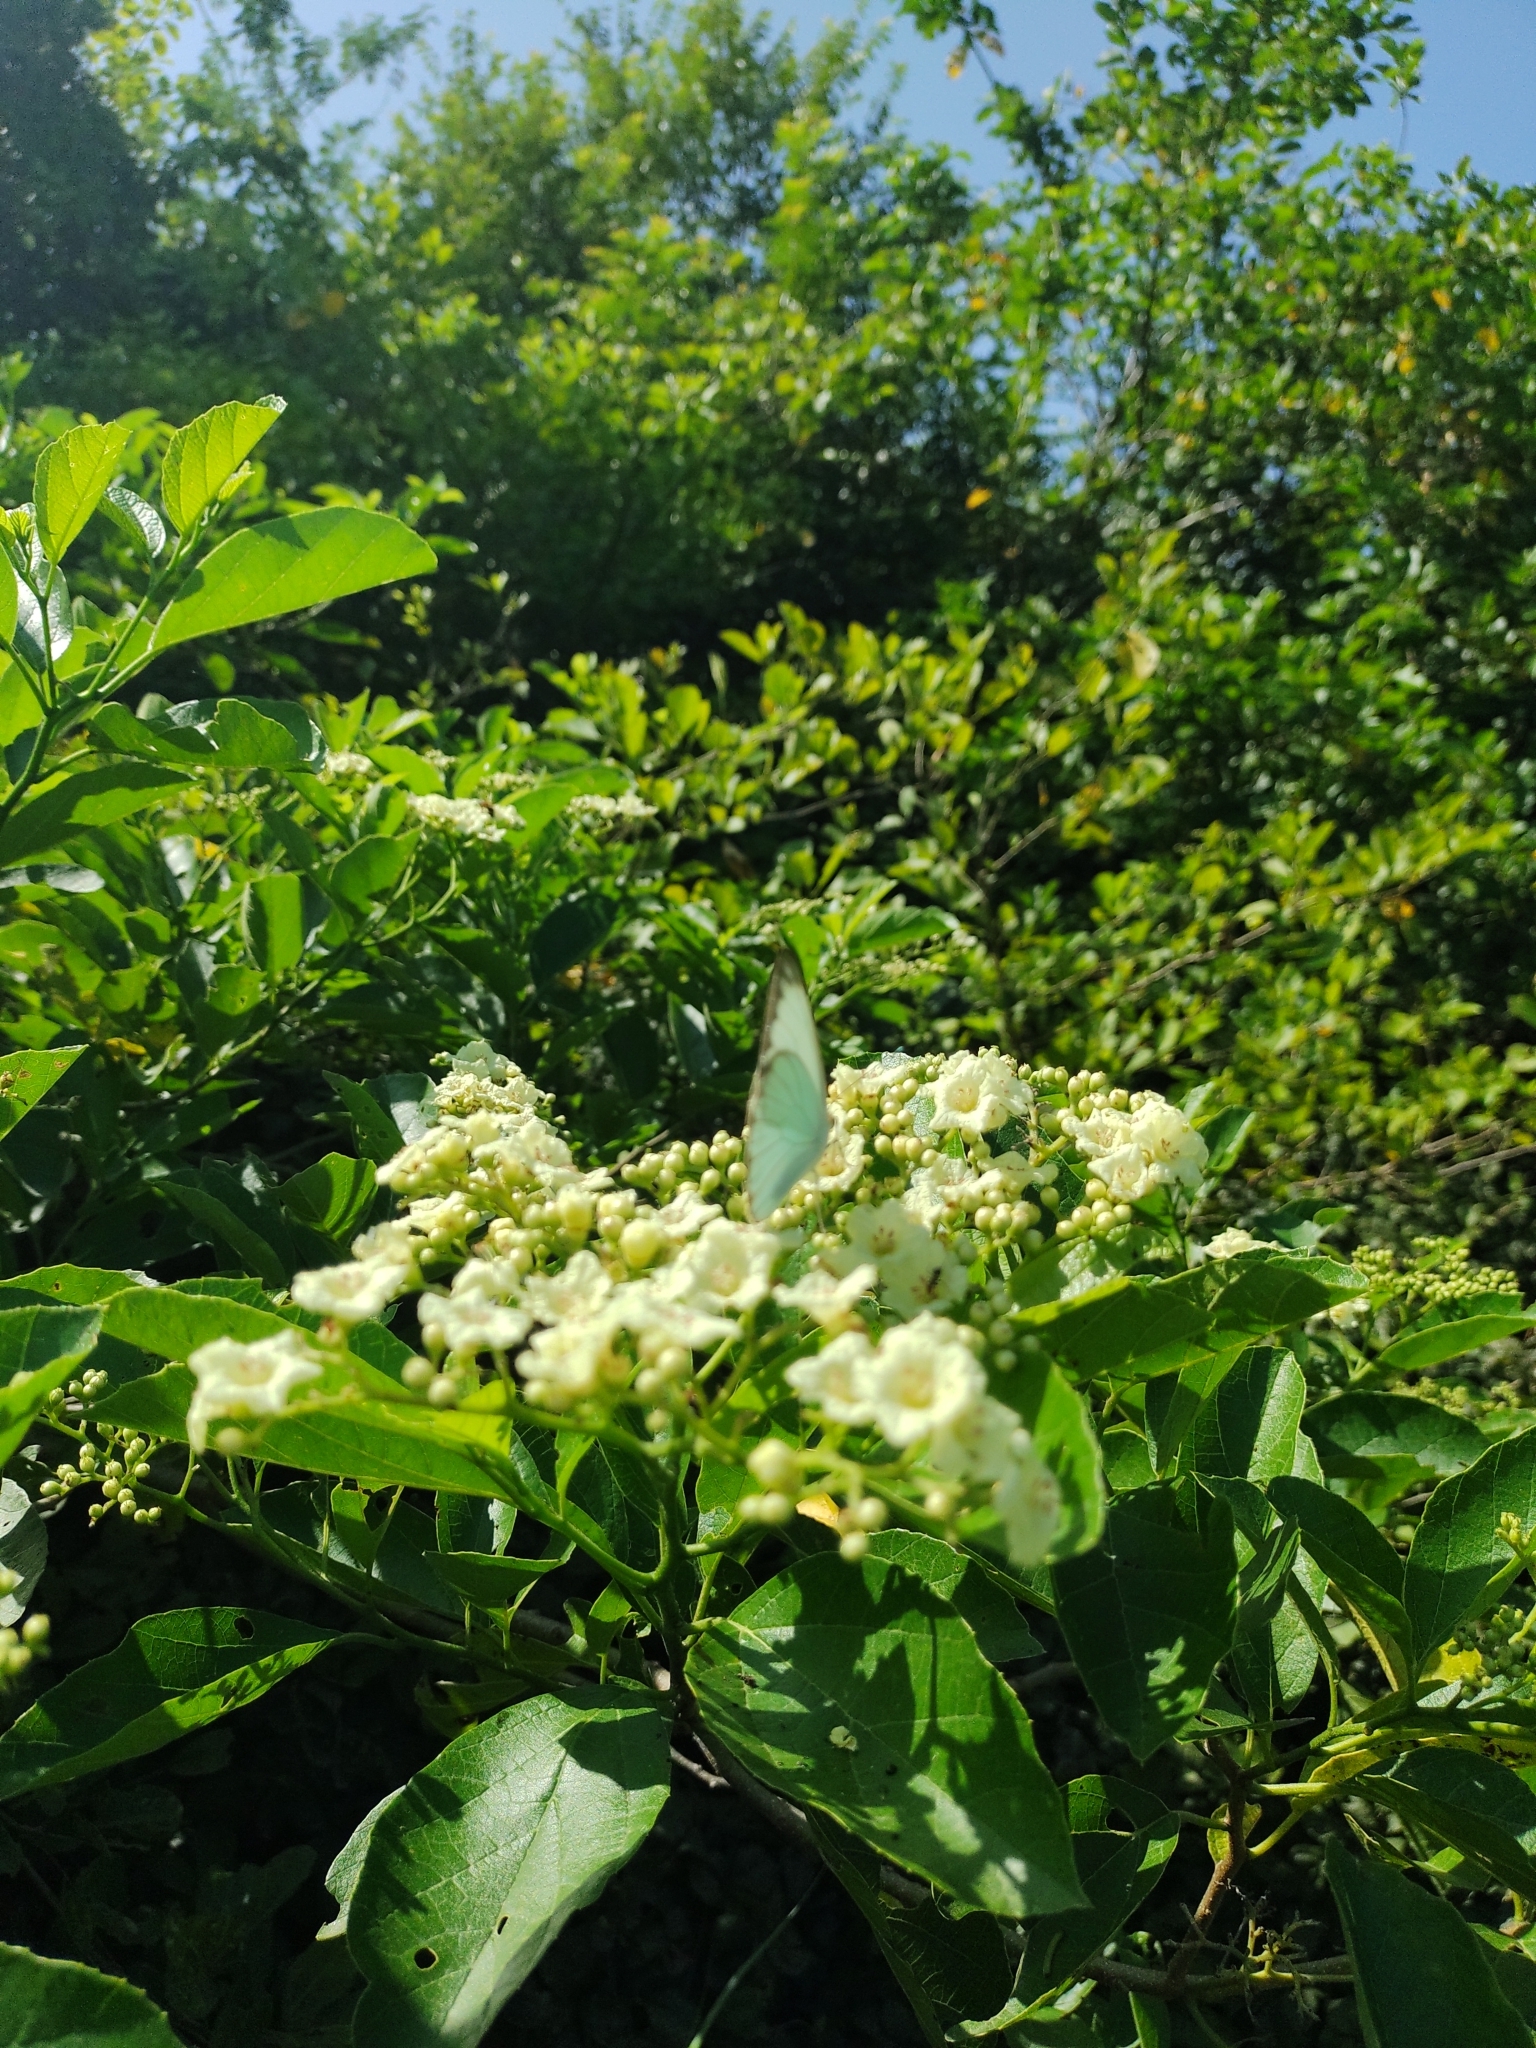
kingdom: Plantae
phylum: Tracheophyta
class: Magnoliopsida
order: Boraginales
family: Cordiaceae
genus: Cordia
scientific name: Cordia dentata
